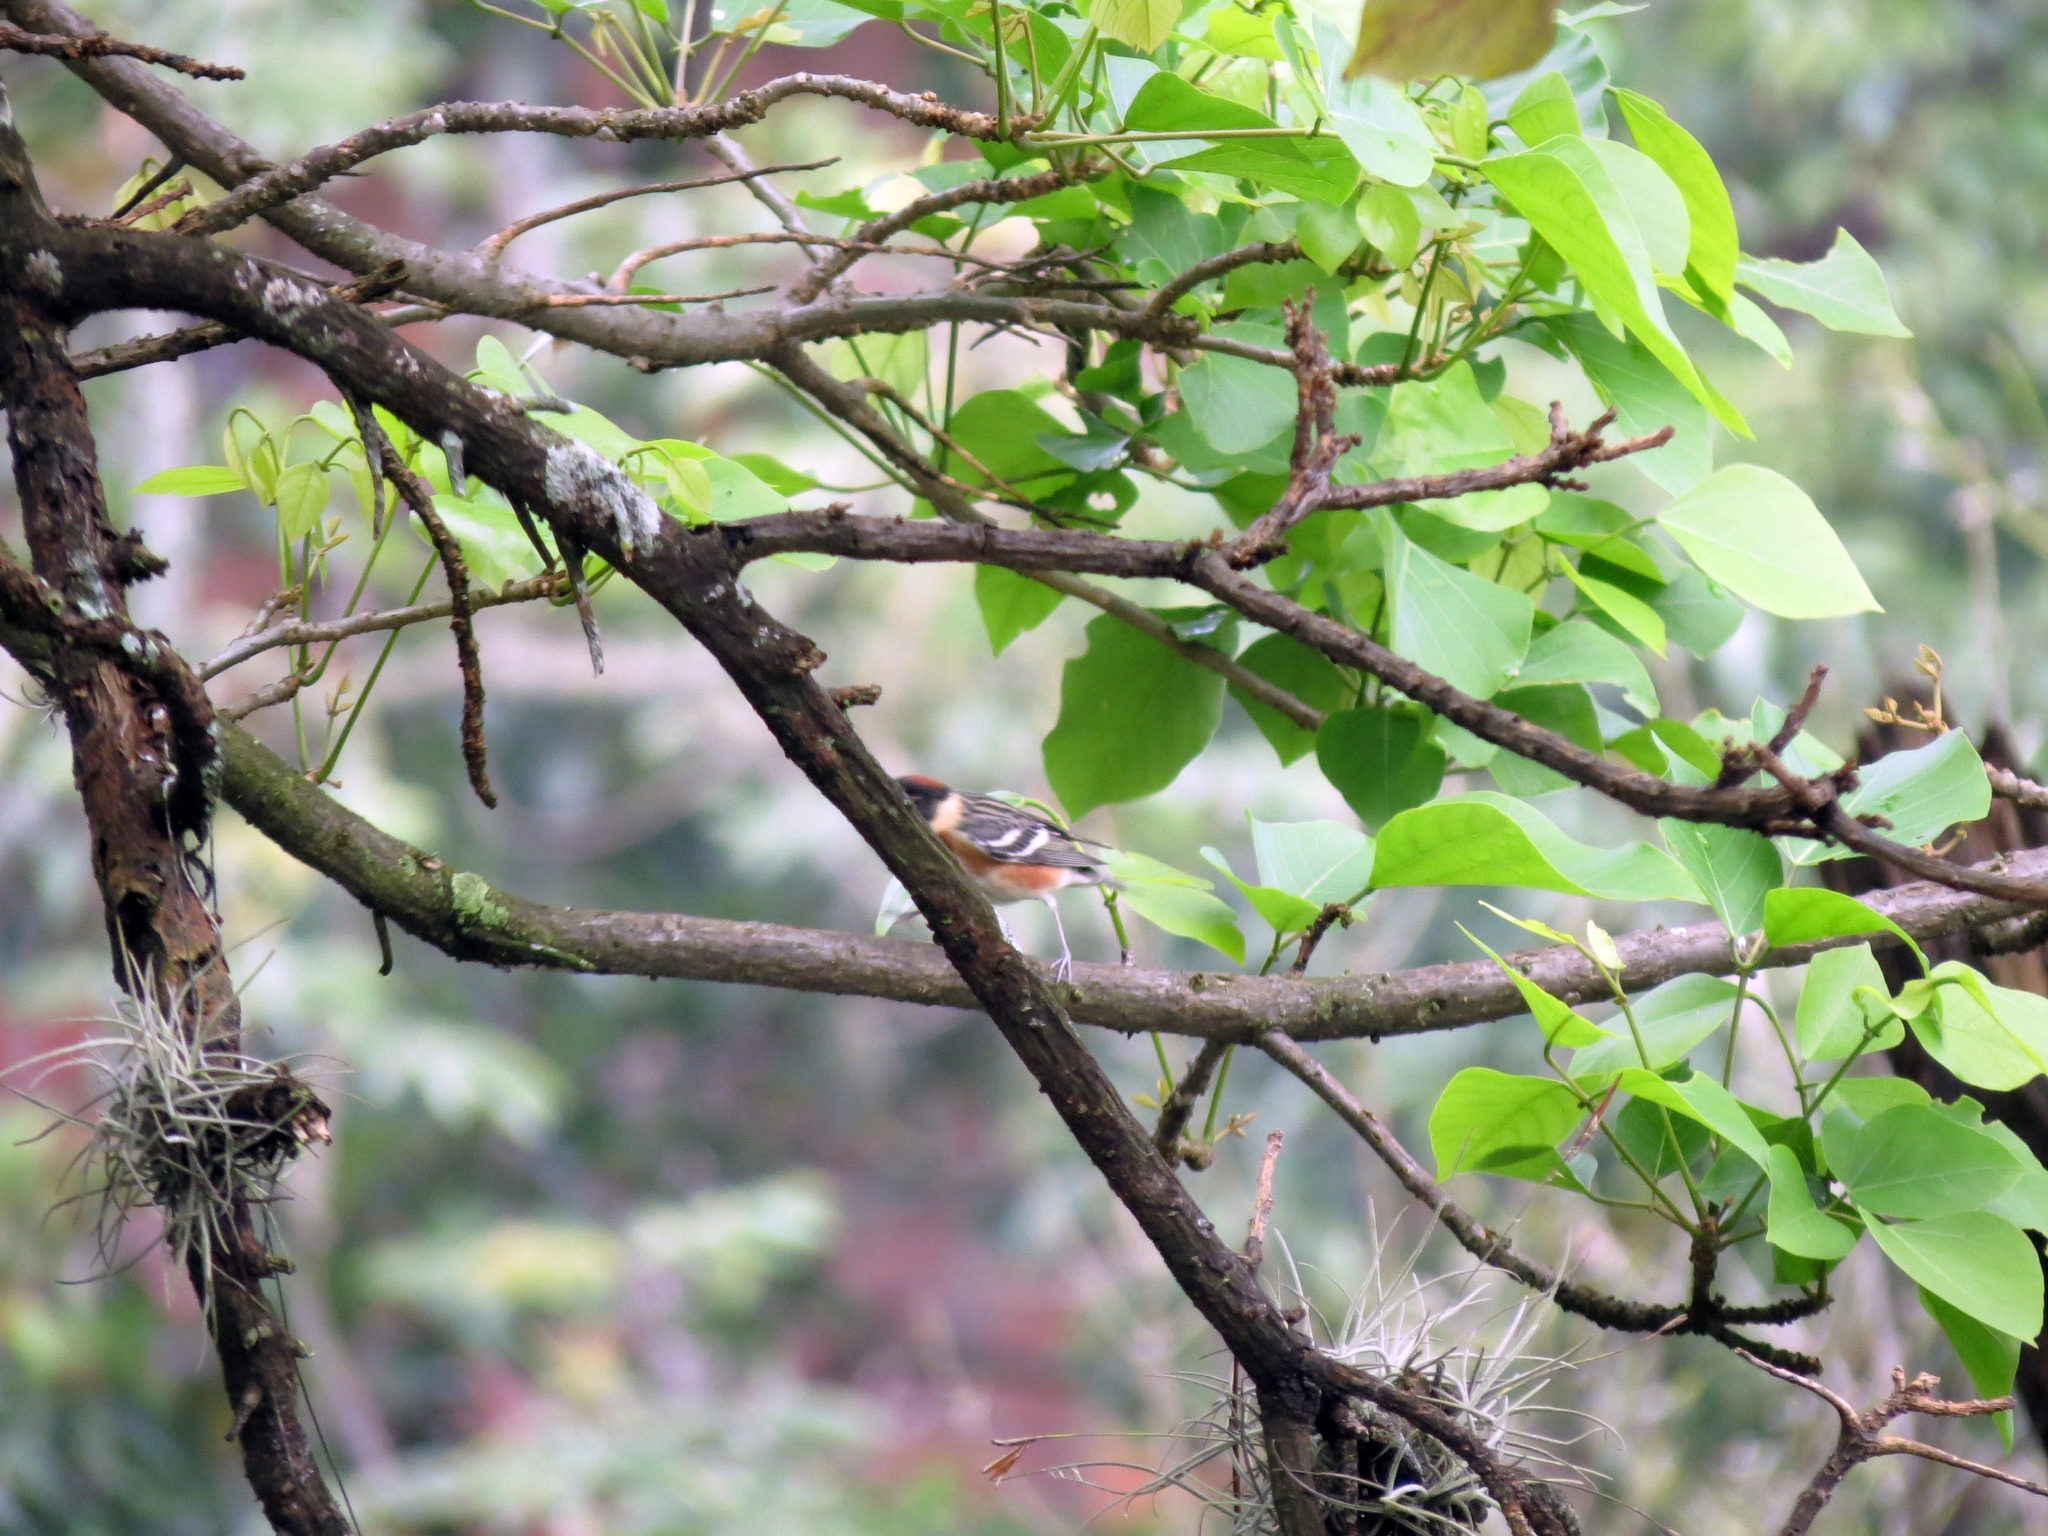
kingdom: Animalia
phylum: Chordata
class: Aves
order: Passeriformes
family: Parulidae
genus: Setophaga
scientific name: Setophaga castanea
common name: Bay-breasted warbler
